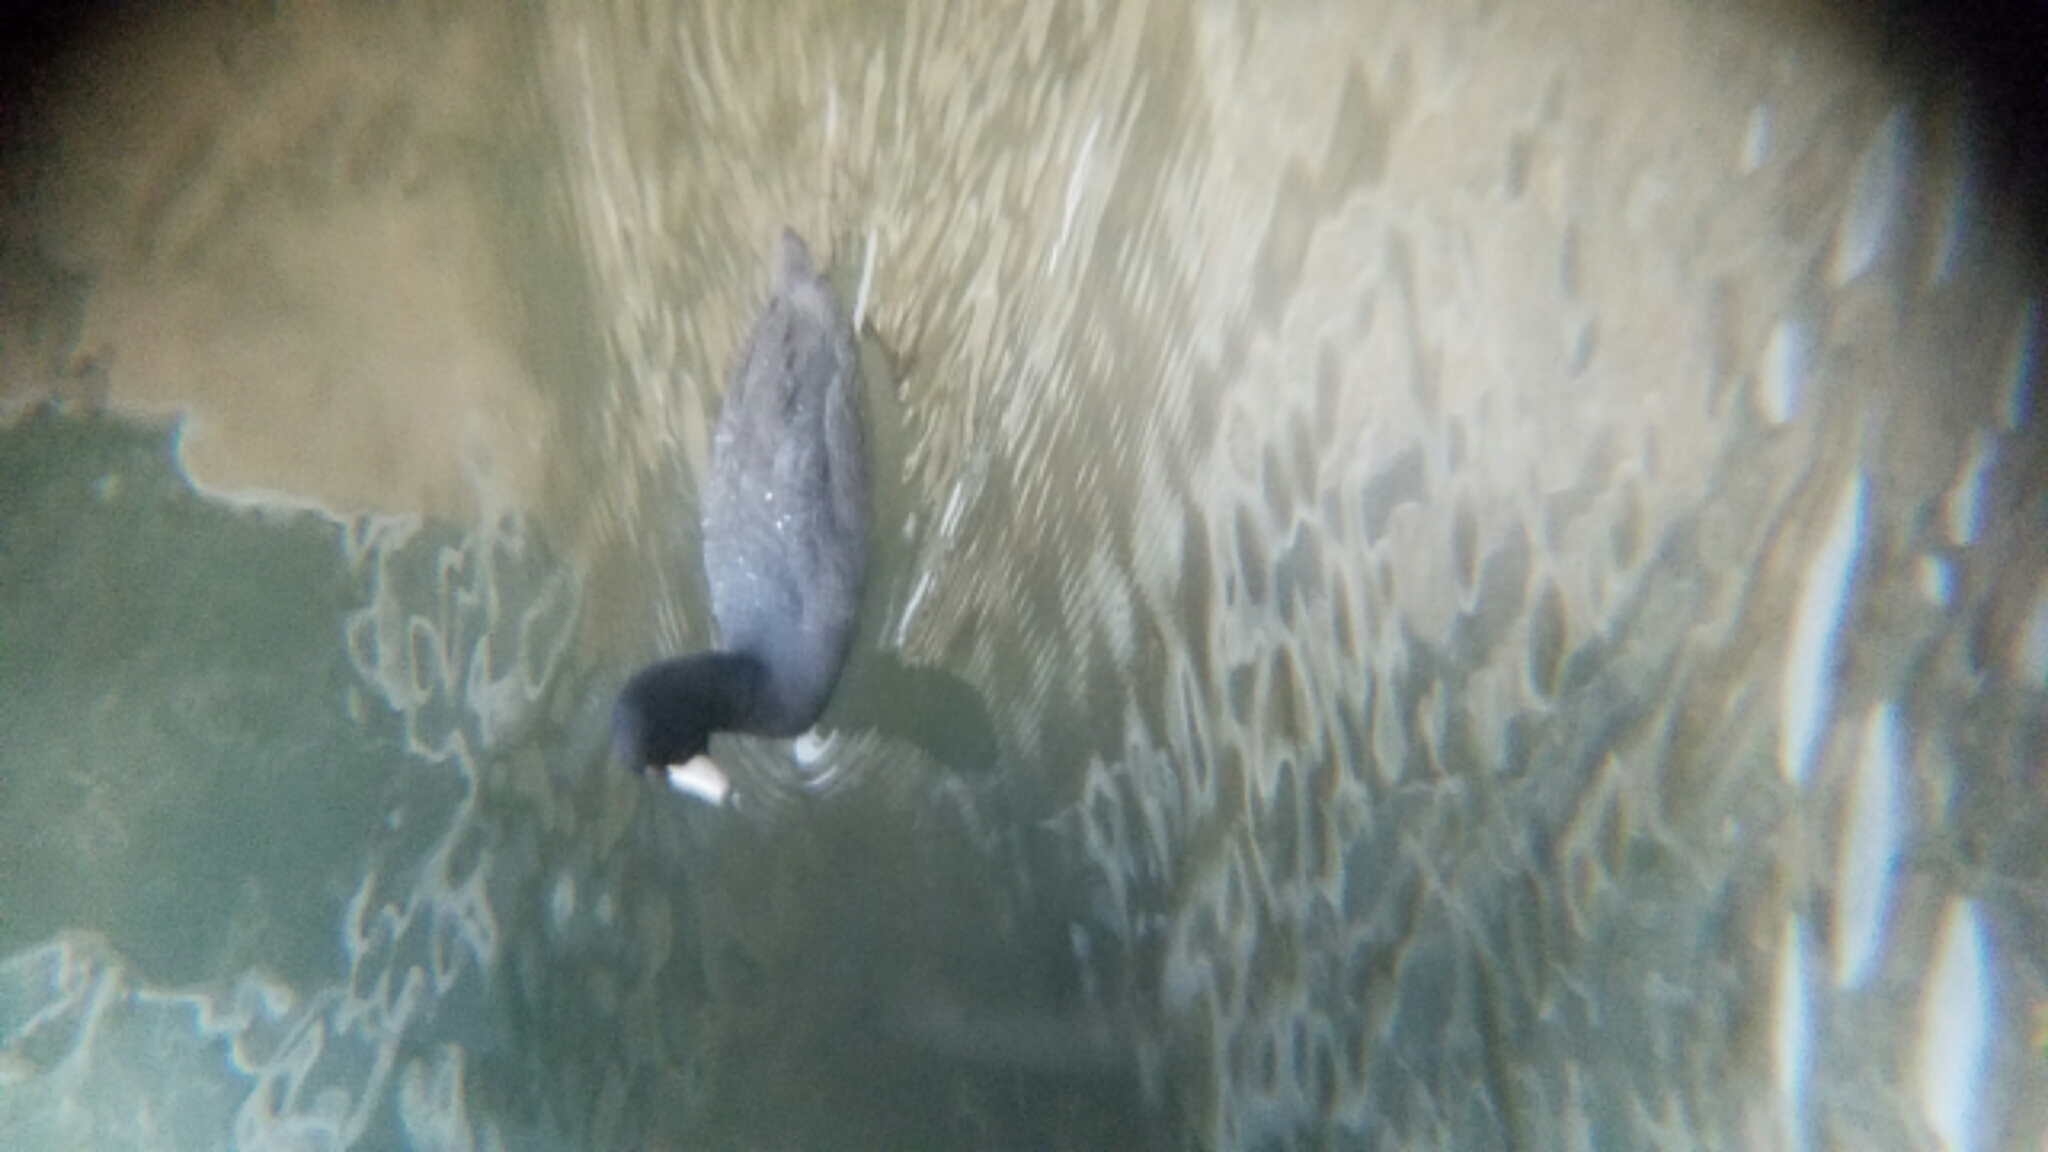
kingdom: Animalia
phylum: Chordata
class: Aves
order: Gruiformes
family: Rallidae
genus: Fulica
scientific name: Fulica americana
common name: American coot
